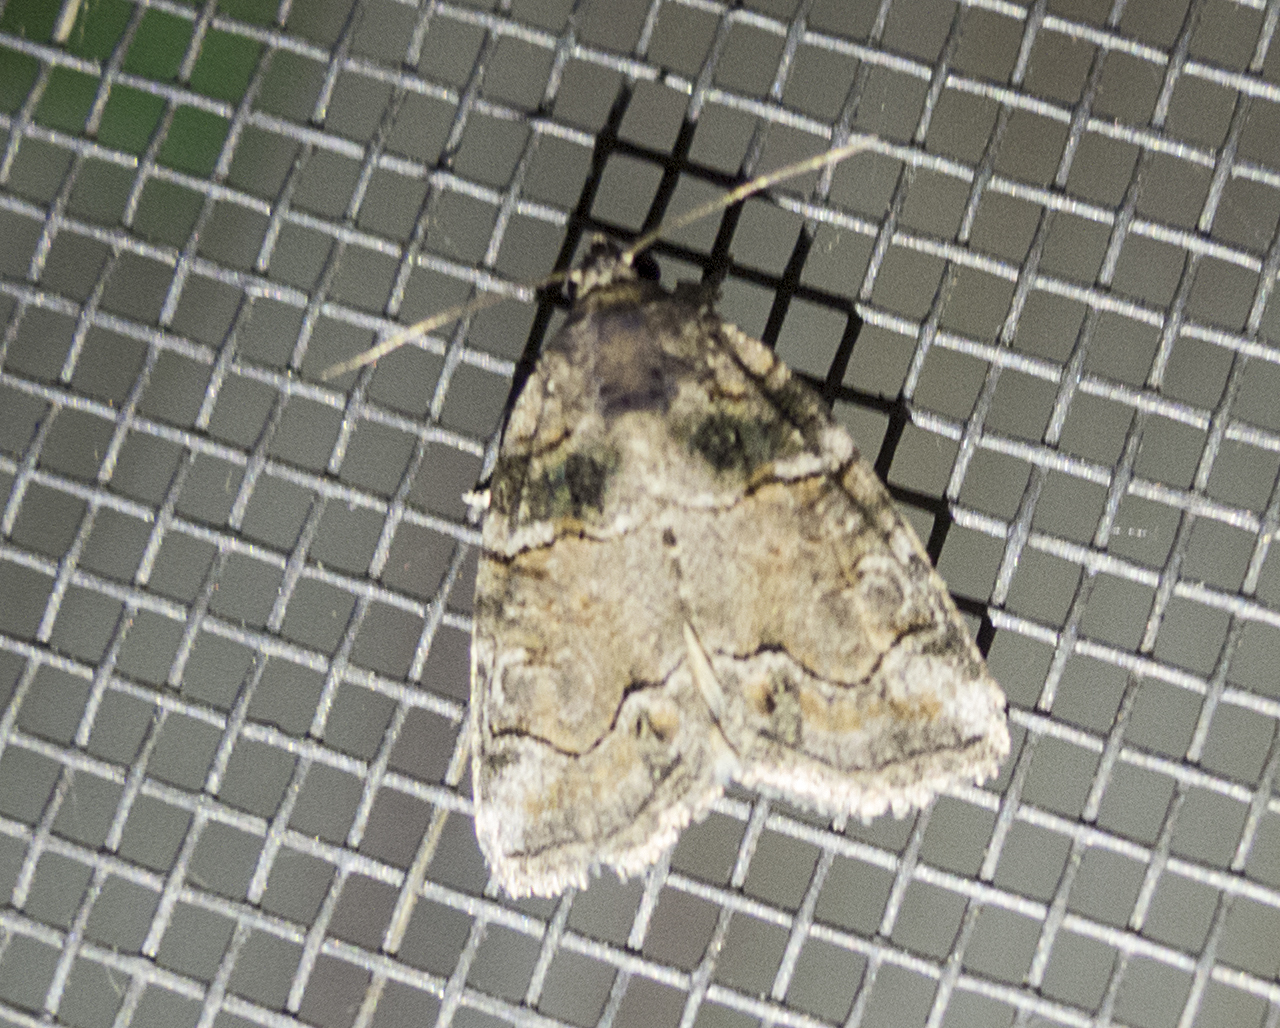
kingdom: Animalia
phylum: Arthropoda
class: Insecta
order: Lepidoptera
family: Noctuidae
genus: Bryophila
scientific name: Bryophila
